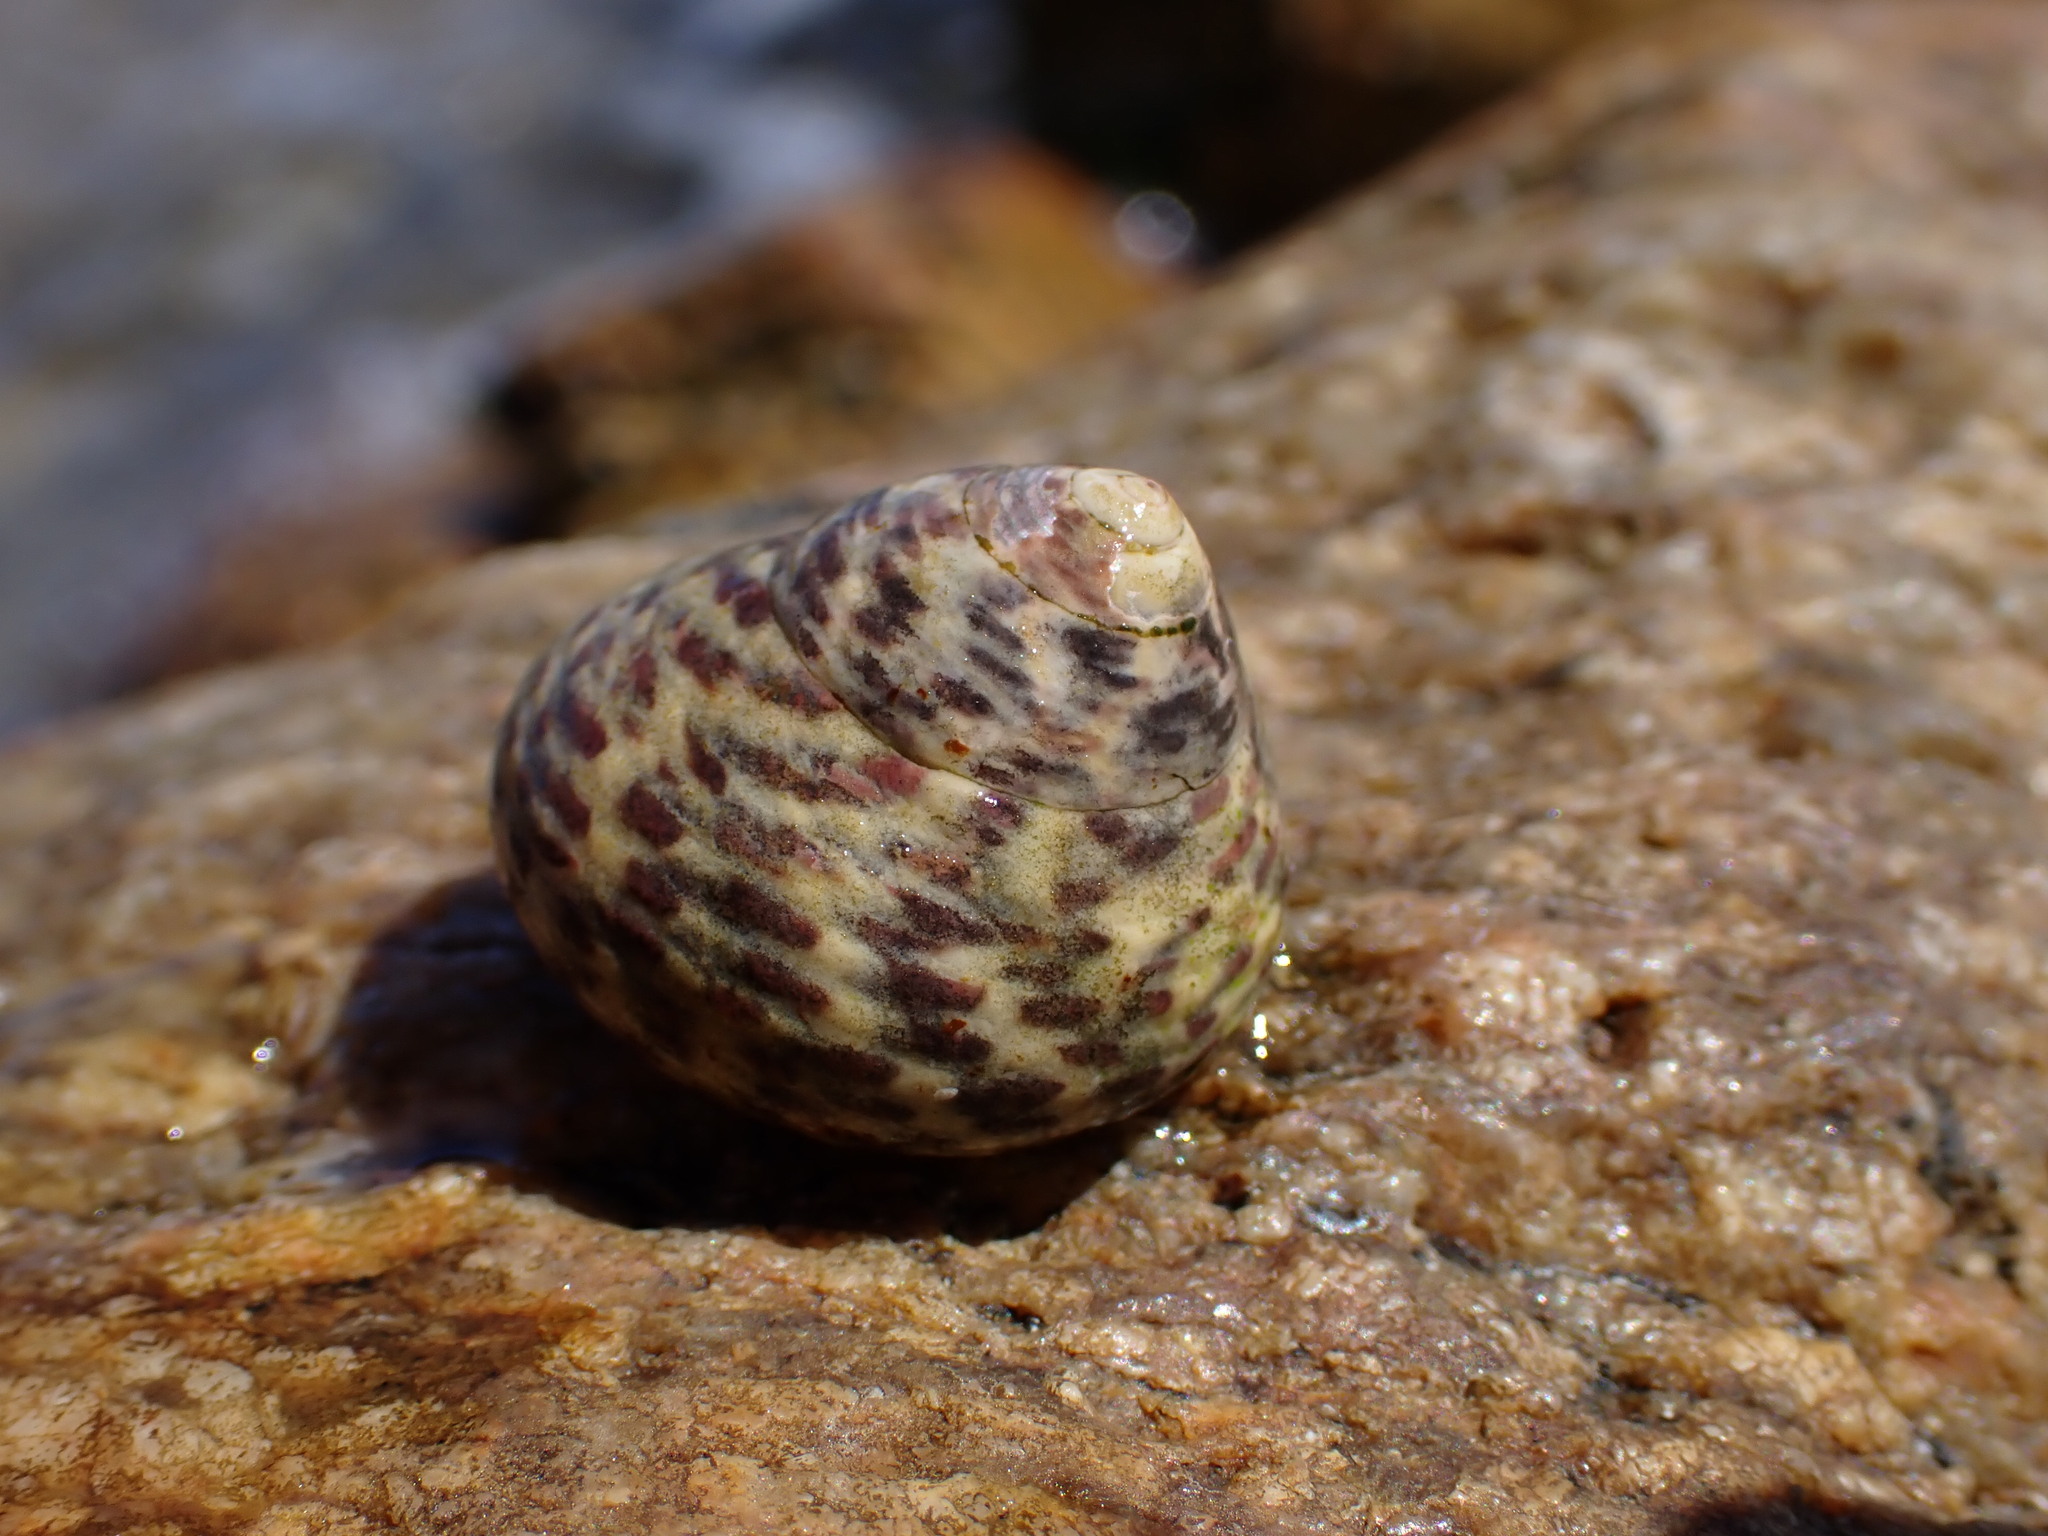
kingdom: Animalia
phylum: Mollusca
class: Gastropoda
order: Trochida
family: Trochidae
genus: Phorcus
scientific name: Phorcus turbinatus
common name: Turbinate monodont
